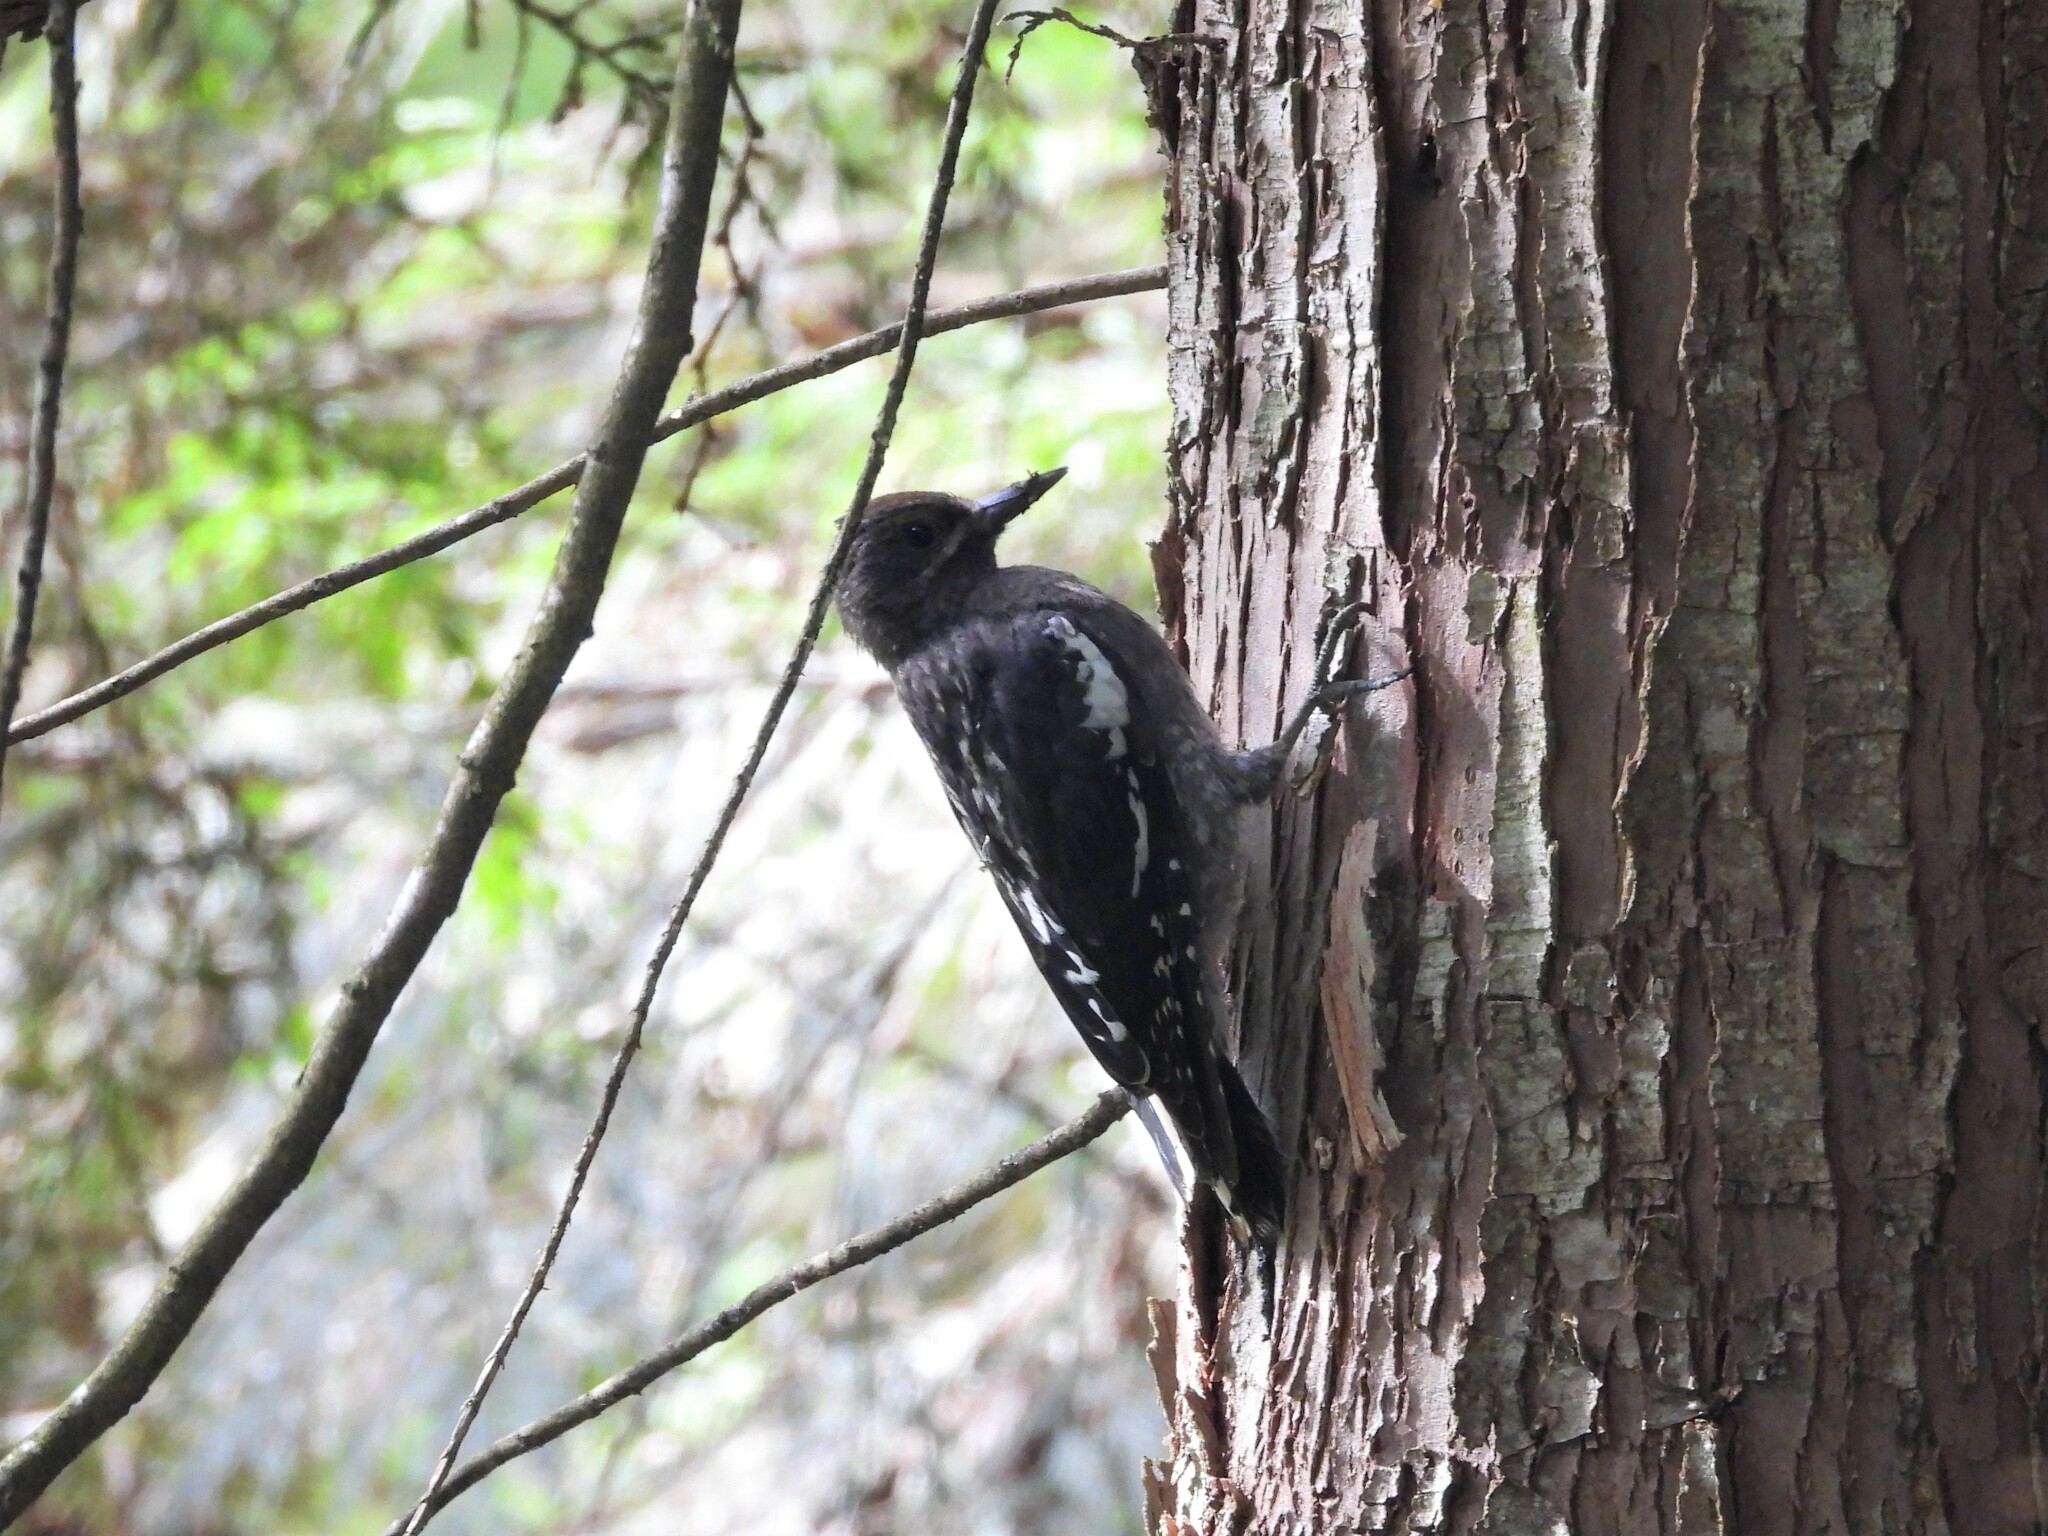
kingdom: Animalia
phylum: Chordata
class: Aves
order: Piciformes
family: Picidae
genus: Sphyrapicus
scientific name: Sphyrapicus ruber
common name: Red-breasted sapsucker
